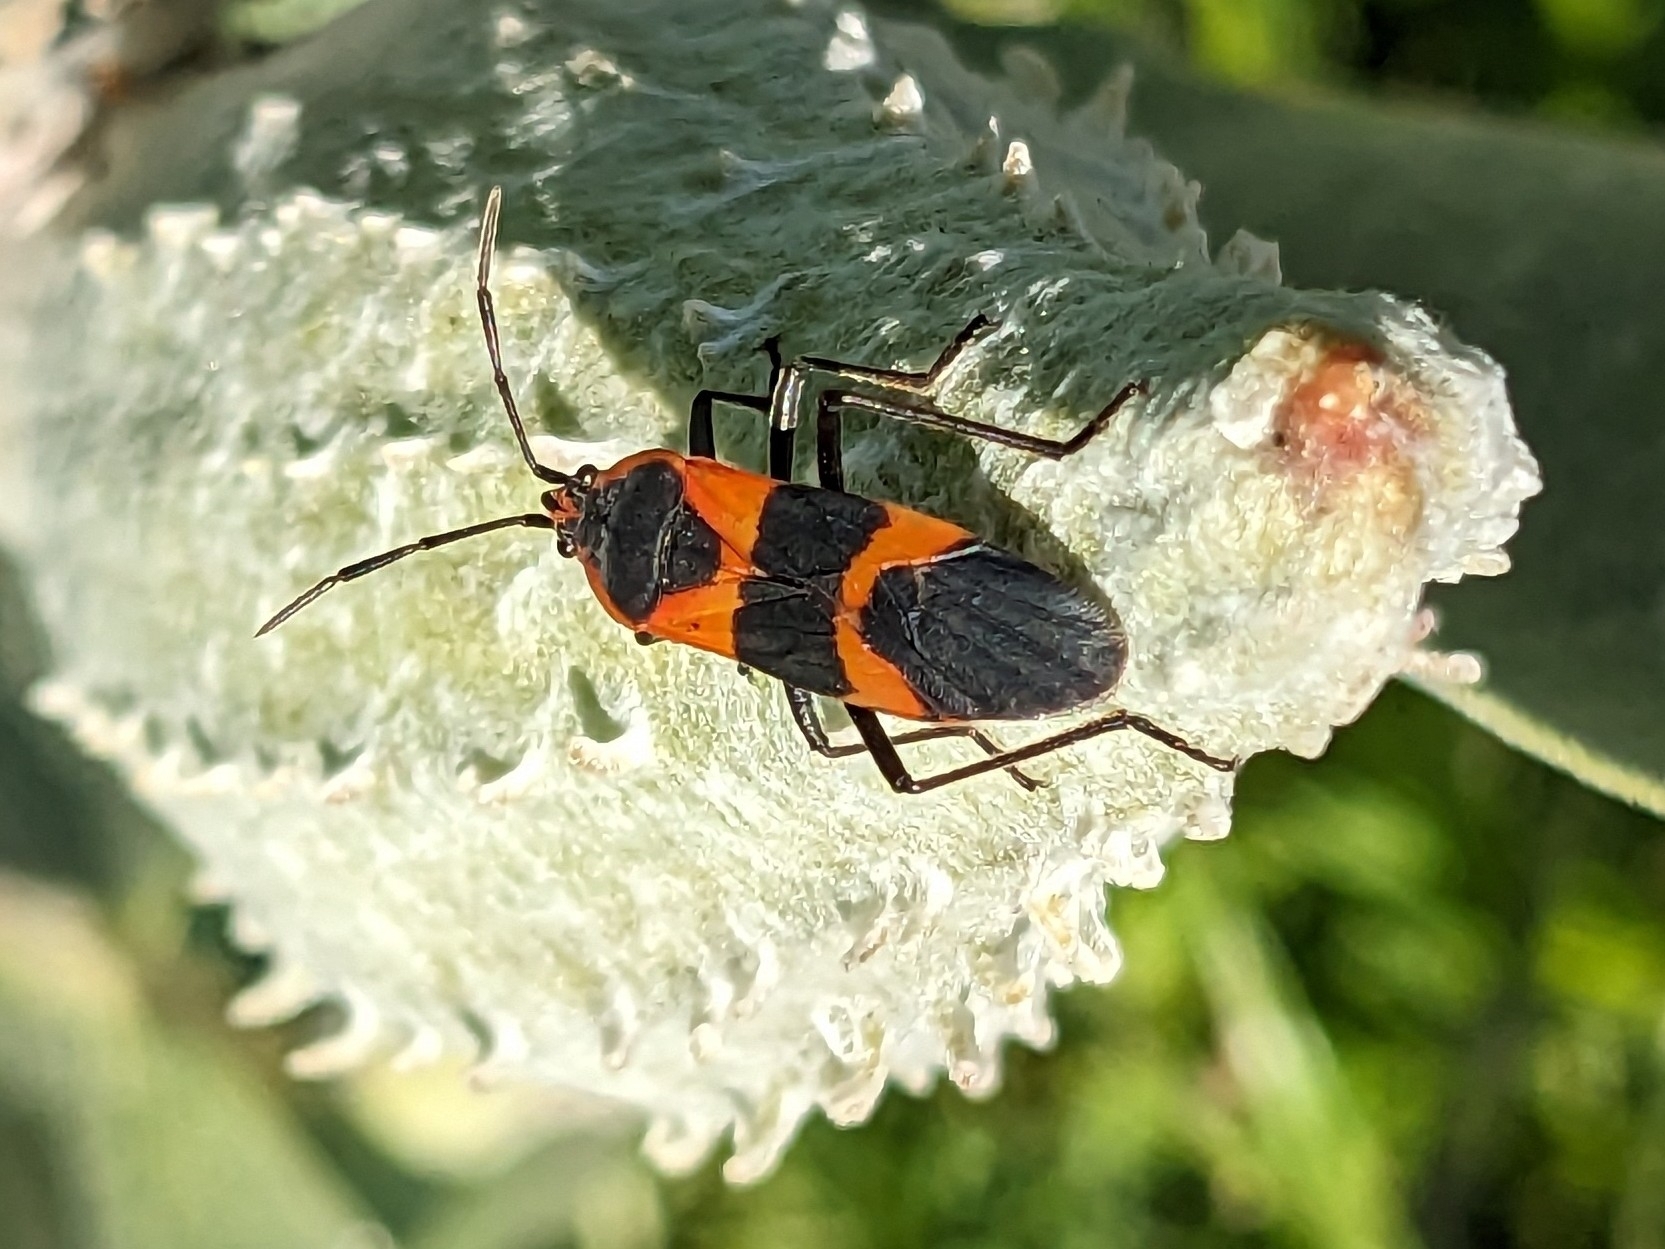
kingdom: Animalia
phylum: Arthropoda
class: Insecta
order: Hemiptera
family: Lygaeidae
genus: Oncopeltus
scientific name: Oncopeltus fasciatus
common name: Large milkweed bug
